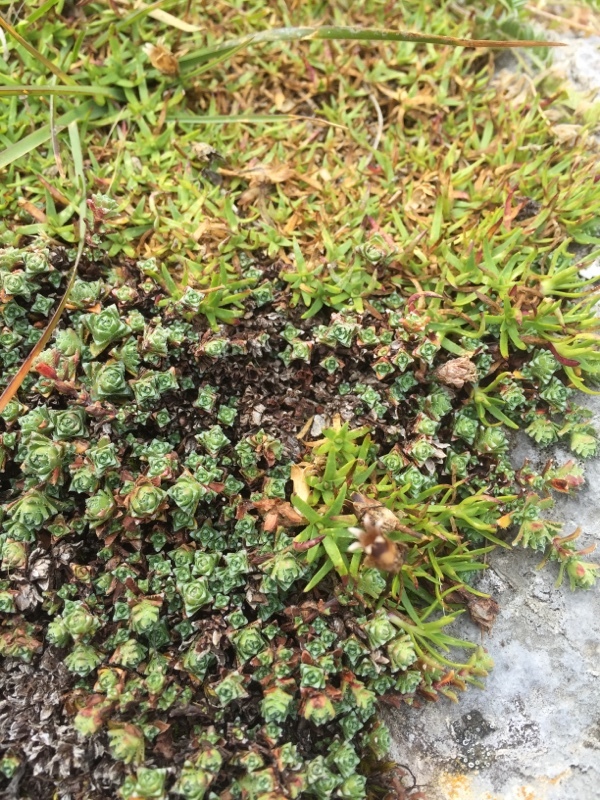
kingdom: Plantae
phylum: Tracheophyta
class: Magnoliopsida
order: Saxifragales
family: Saxifragaceae
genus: Saxifraga
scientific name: Saxifraga oppositifolia
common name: Purple saxifrage
